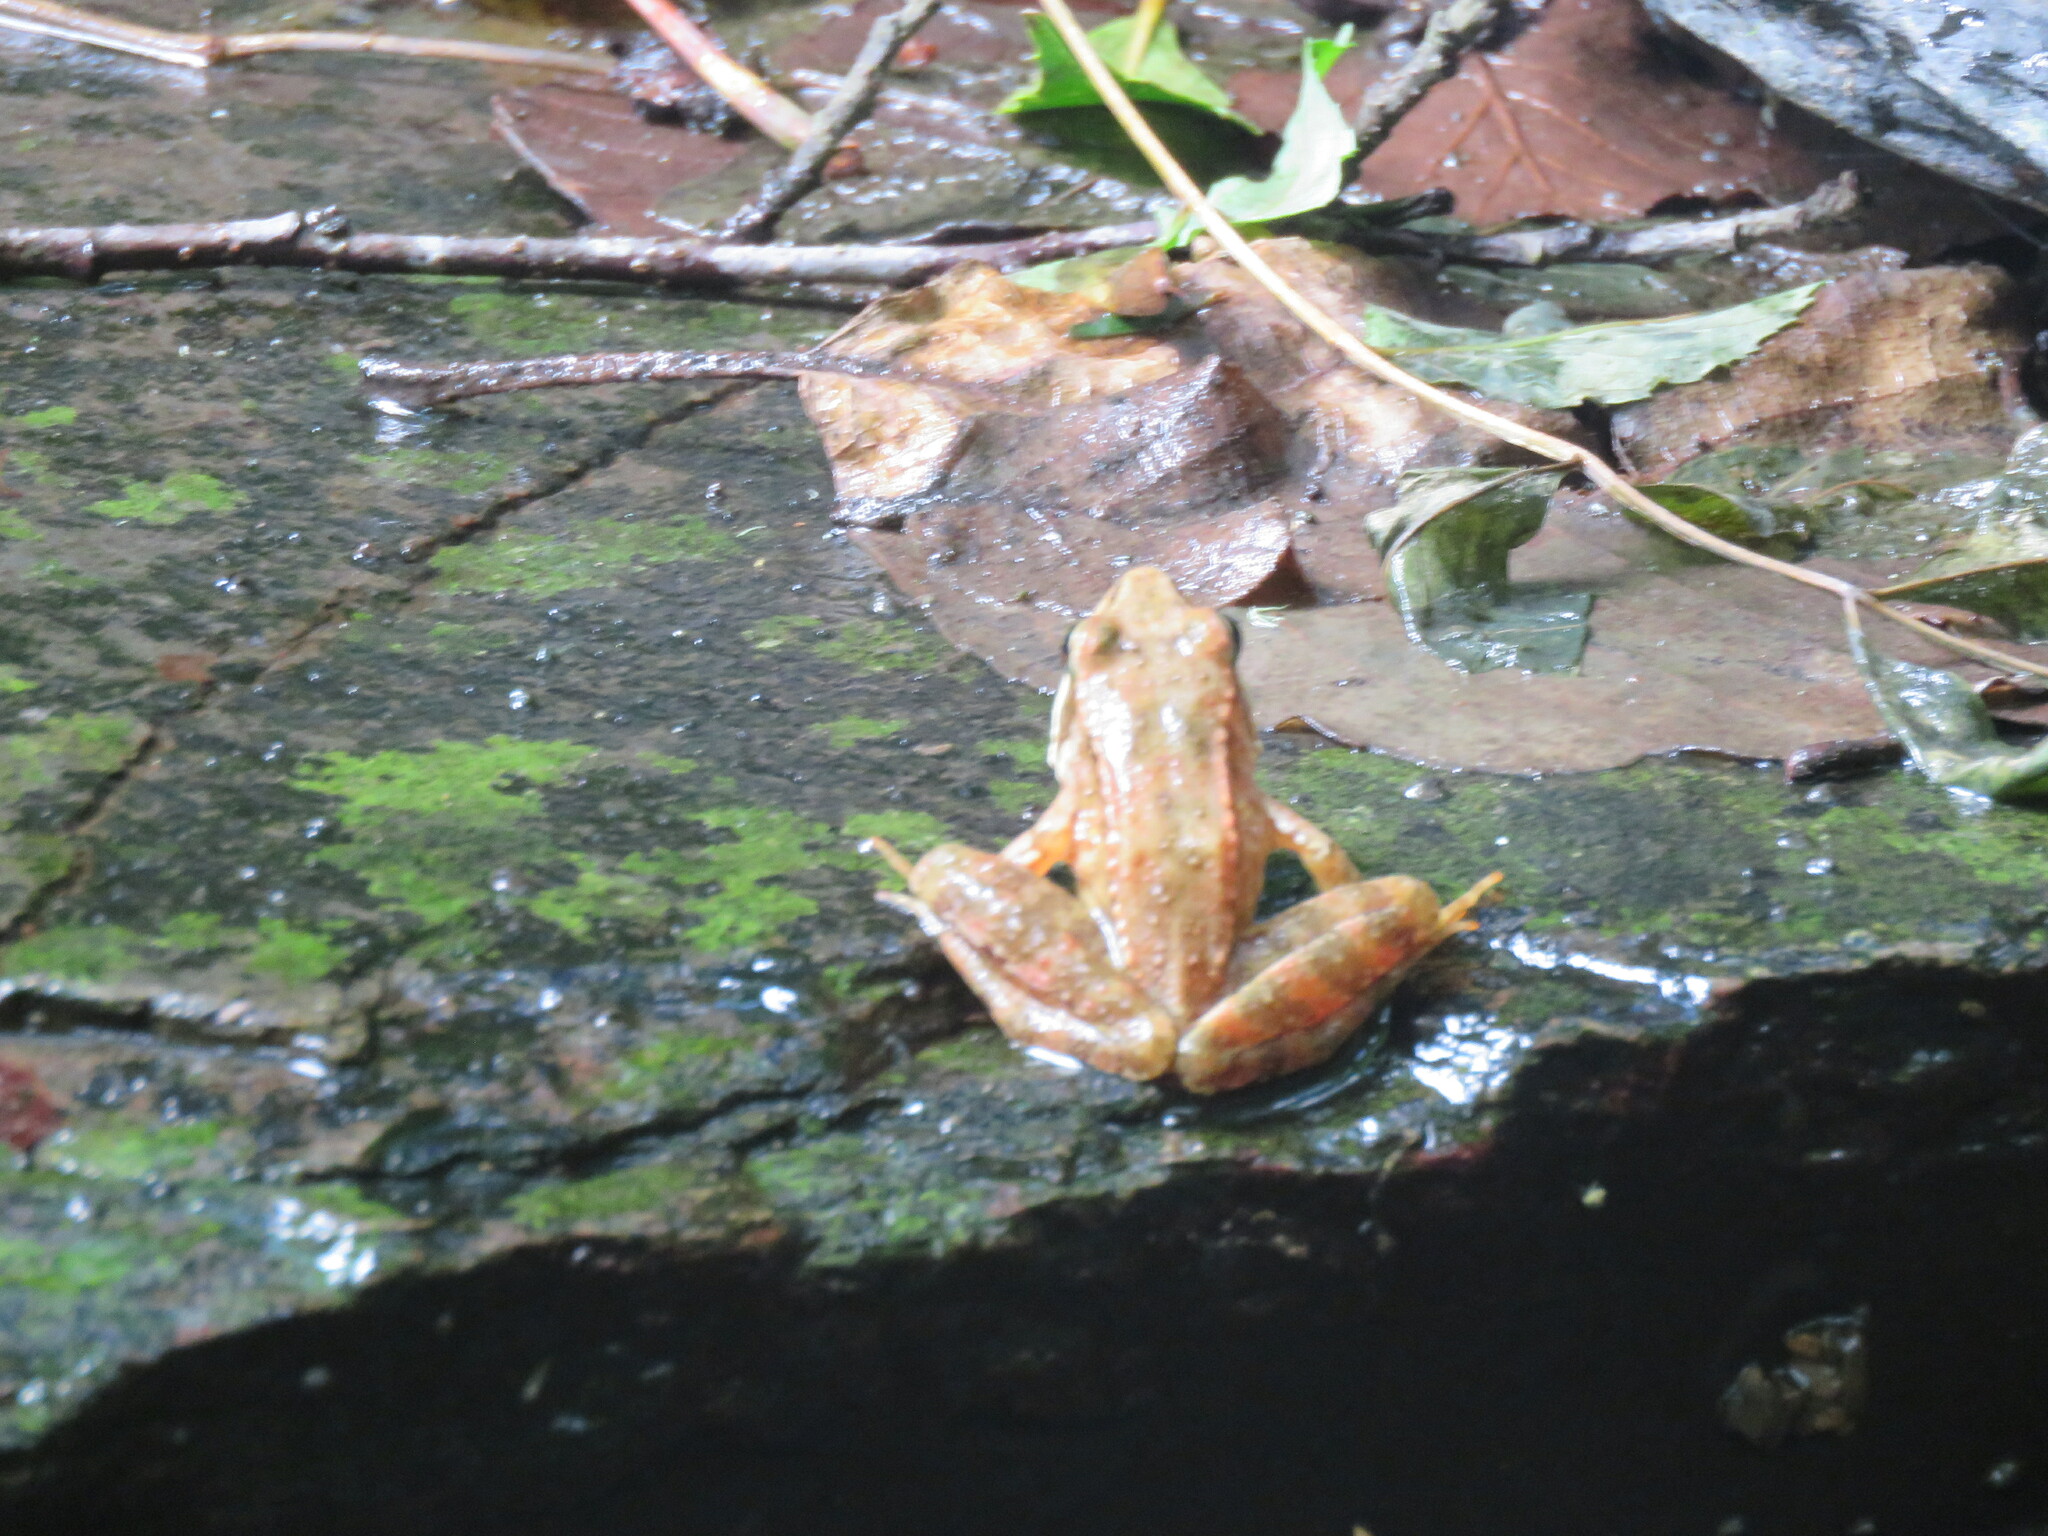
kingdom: Animalia
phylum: Chordata
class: Amphibia
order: Anura
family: Ranidae
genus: Rana
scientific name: Rana iberica
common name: Iberian frog
